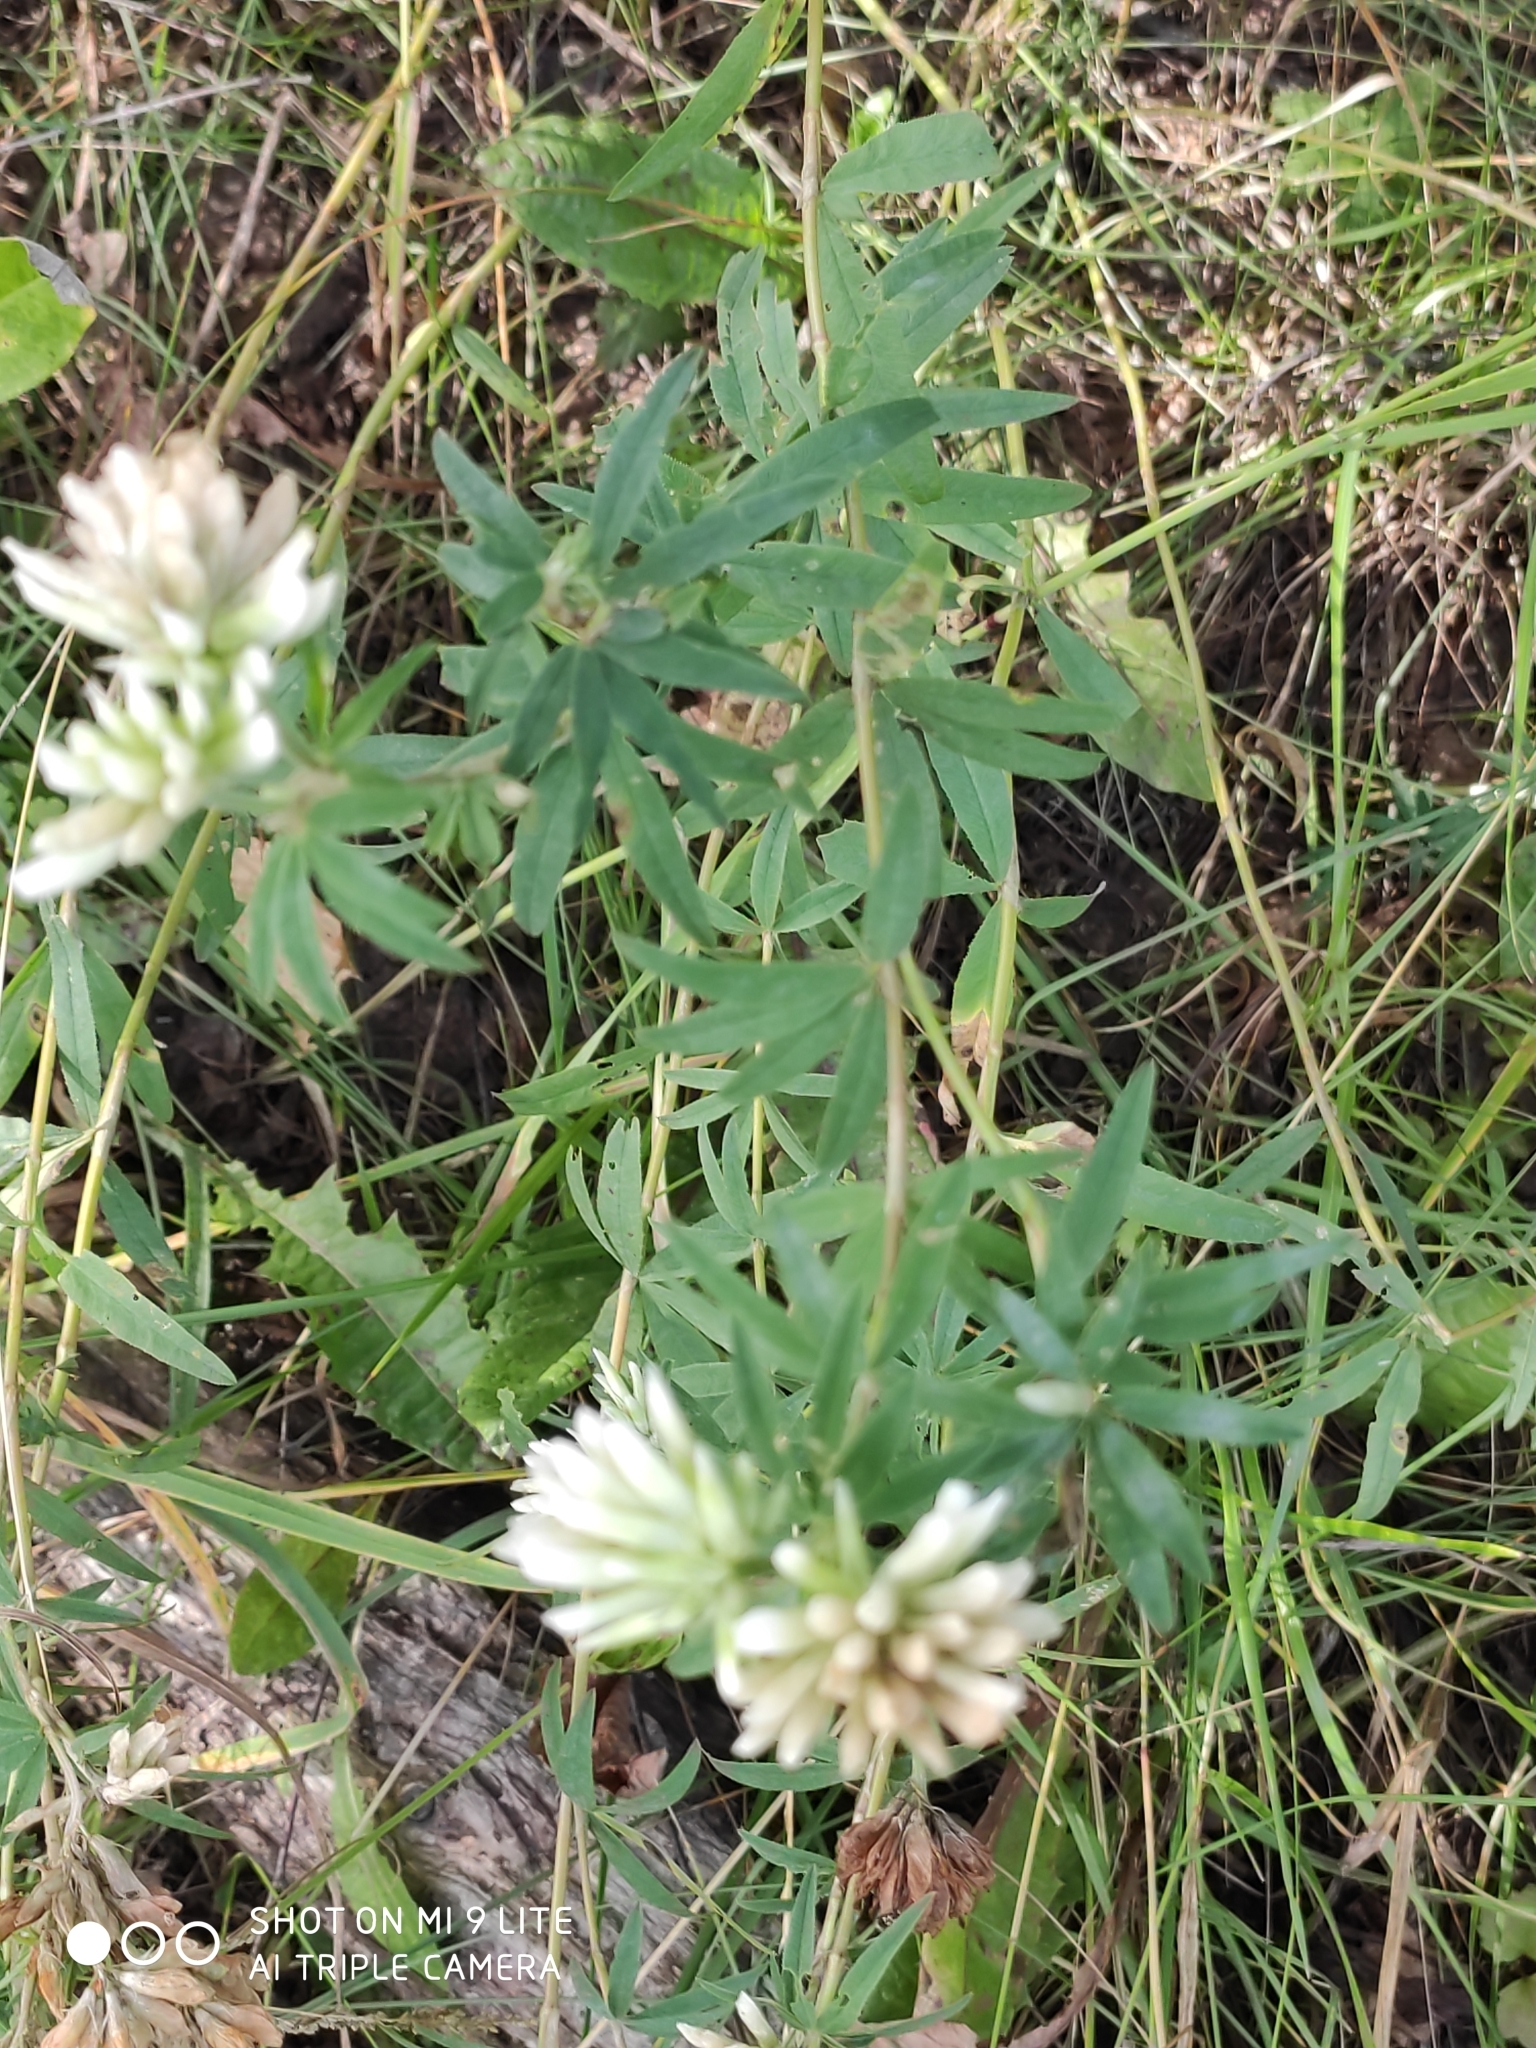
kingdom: Plantae
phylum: Tracheophyta
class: Magnoliopsida
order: Fabales
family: Fabaceae
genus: Trifolium
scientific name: Trifolium lupinaster
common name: Lupine clover
